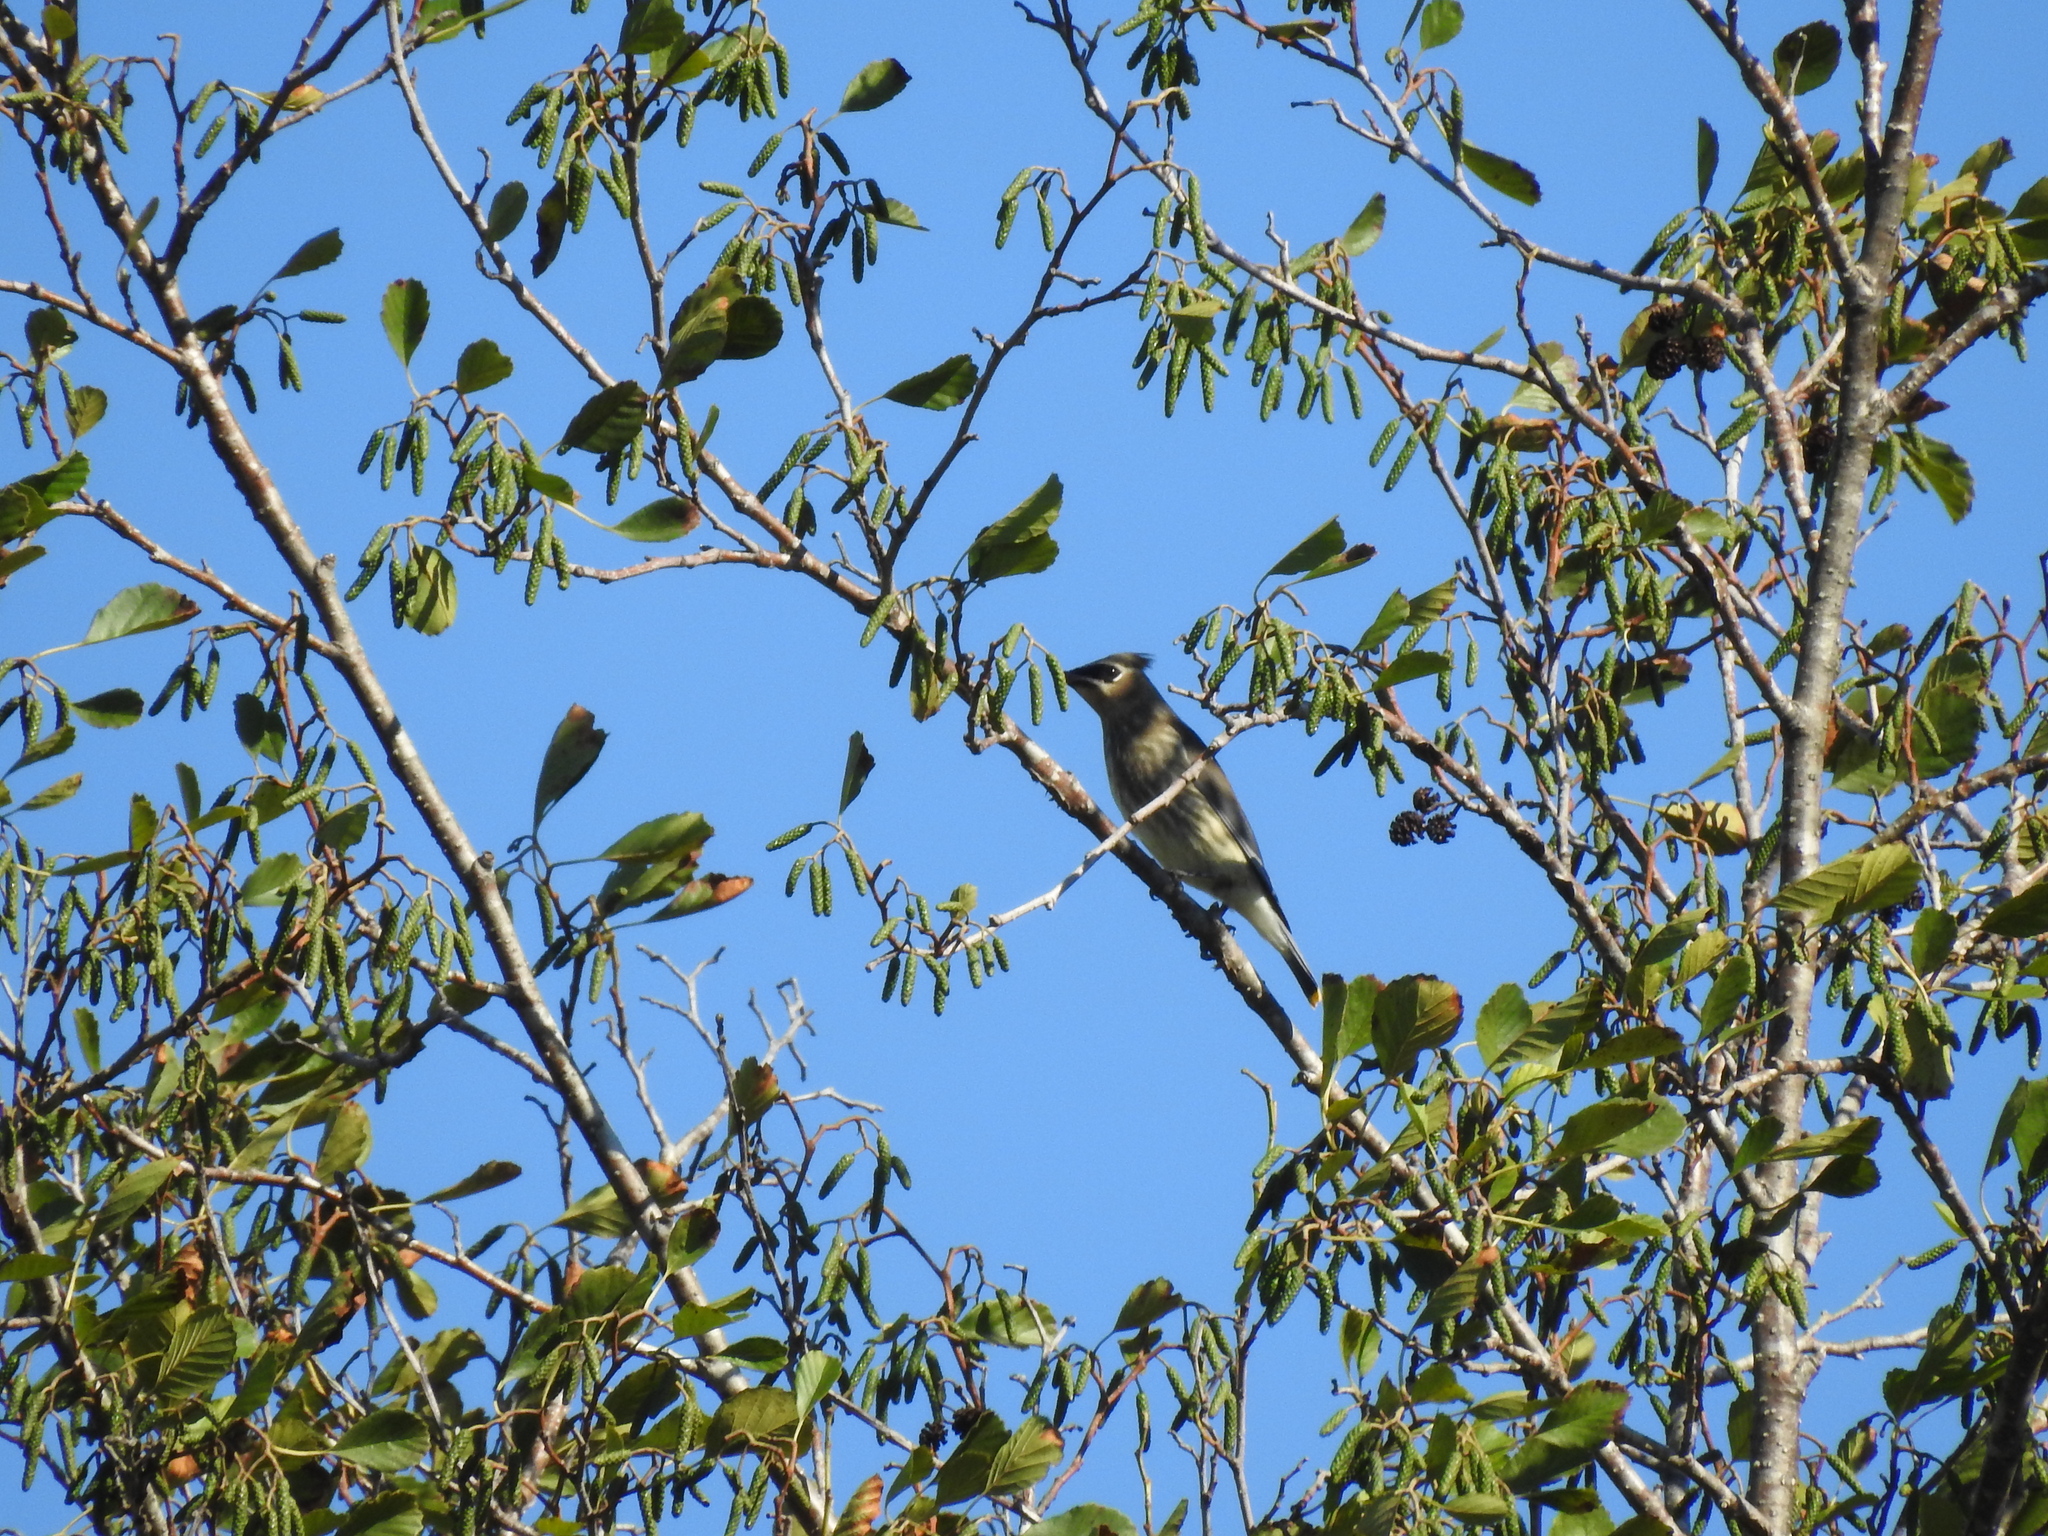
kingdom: Animalia
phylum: Chordata
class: Aves
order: Passeriformes
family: Bombycillidae
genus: Bombycilla
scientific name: Bombycilla cedrorum
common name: Cedar waxwing
